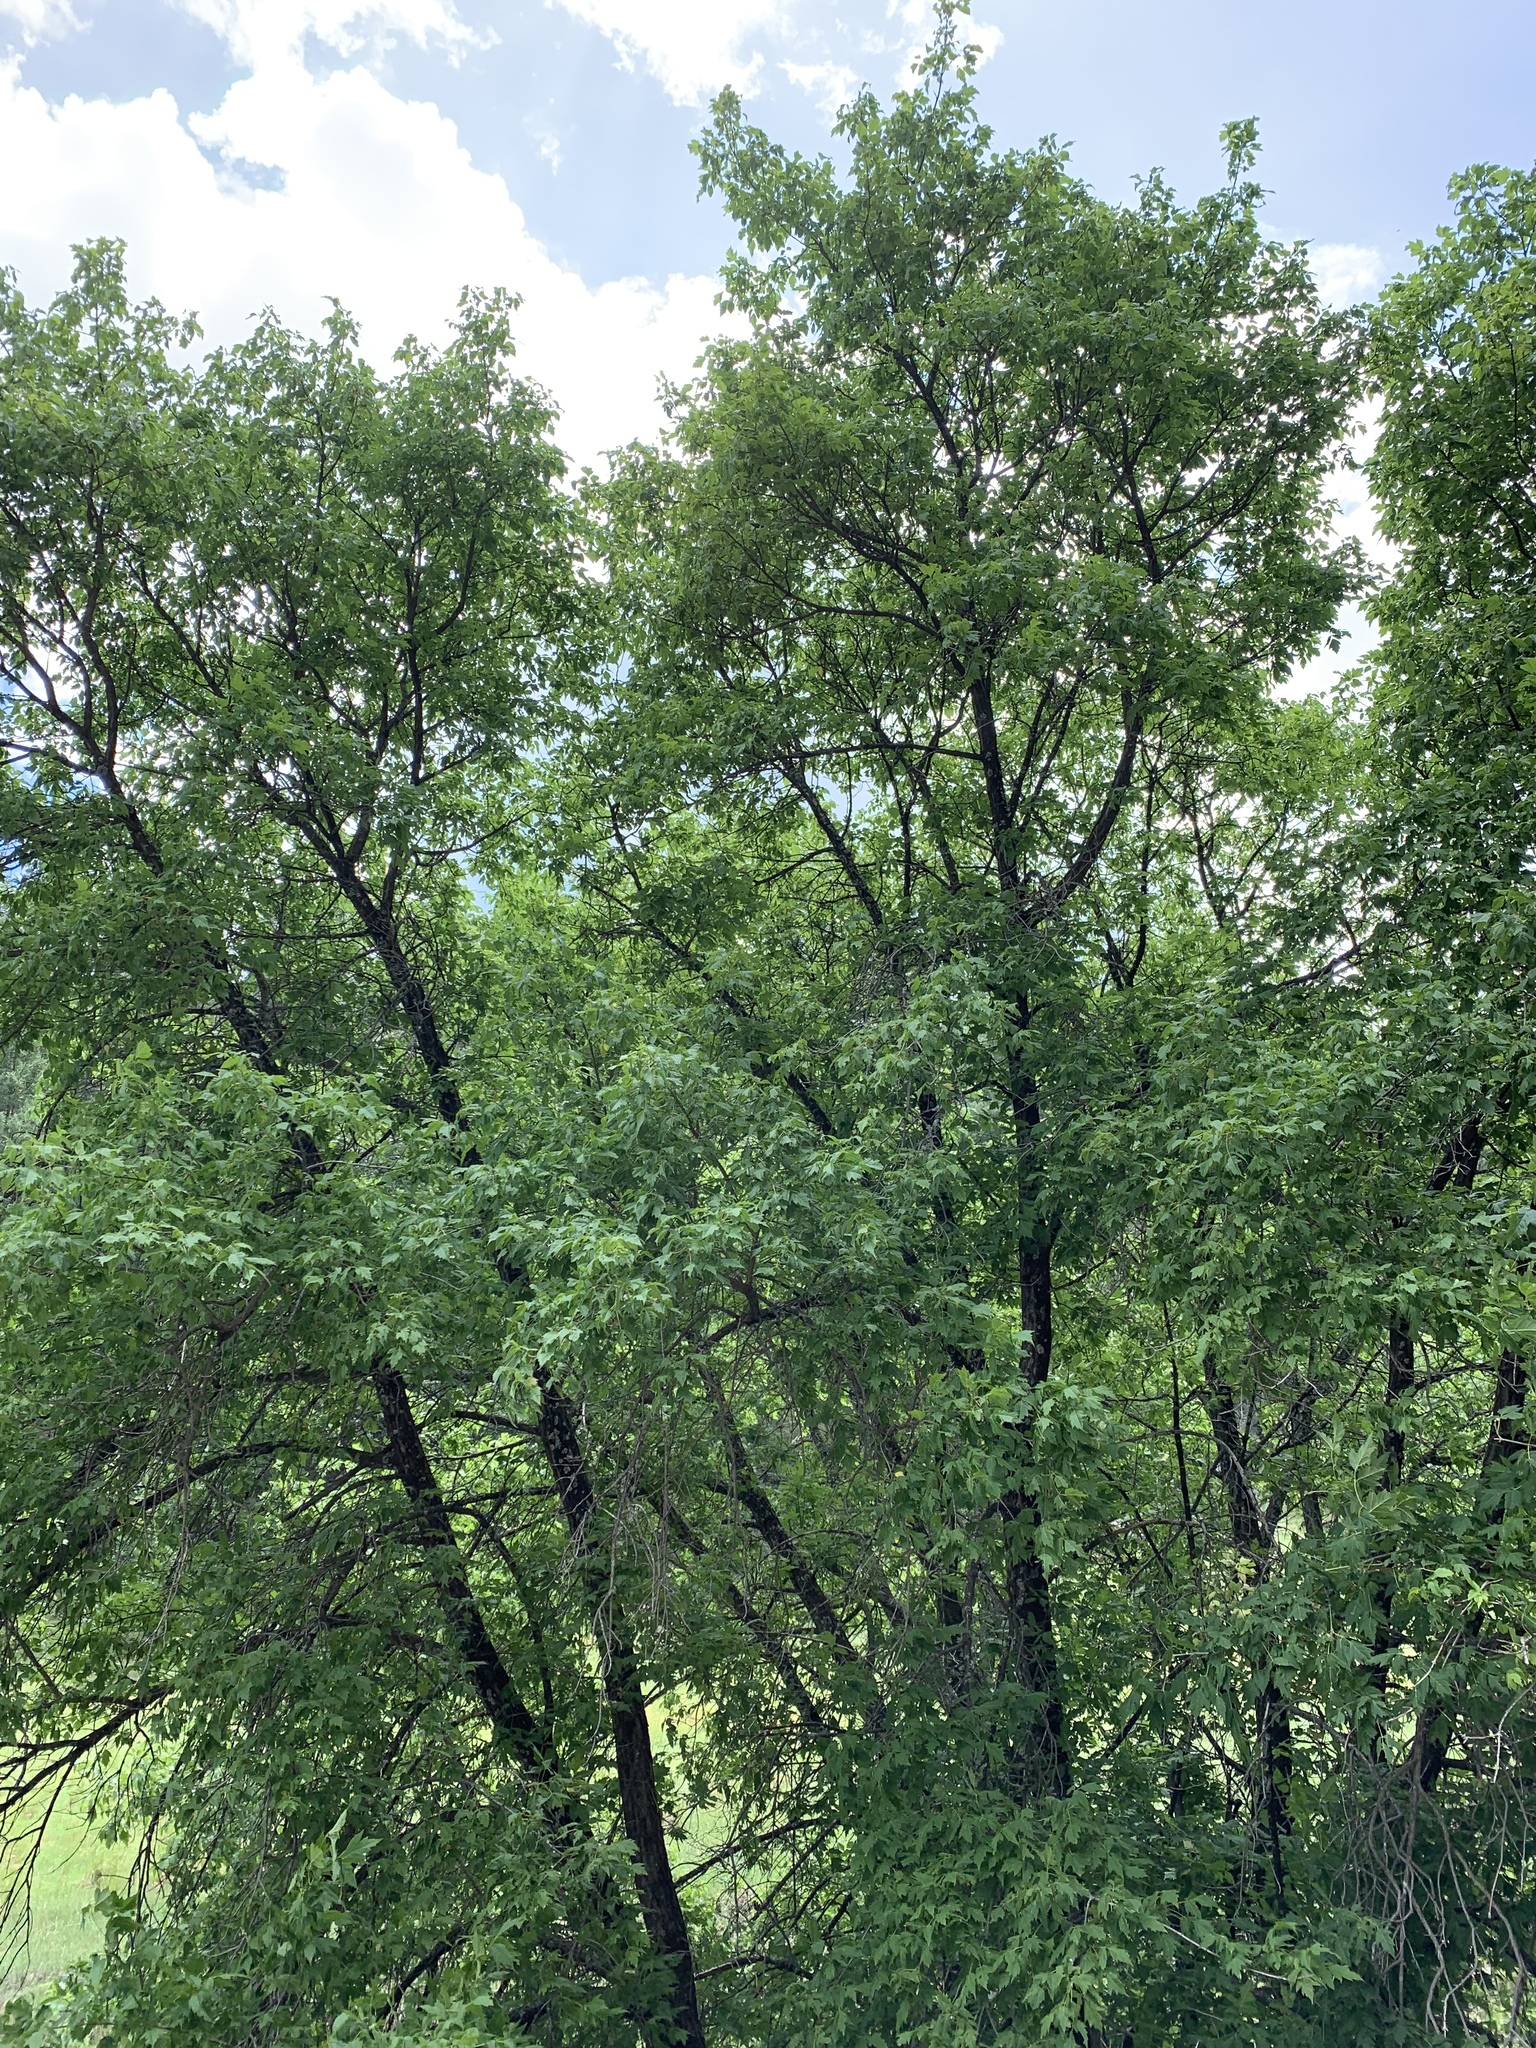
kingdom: Plantae
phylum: Tracheophyta
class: Magnoliopsida
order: Sapindales
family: Sapindaceae
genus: Acer
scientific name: Acer negundo
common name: Ashleaf maple
